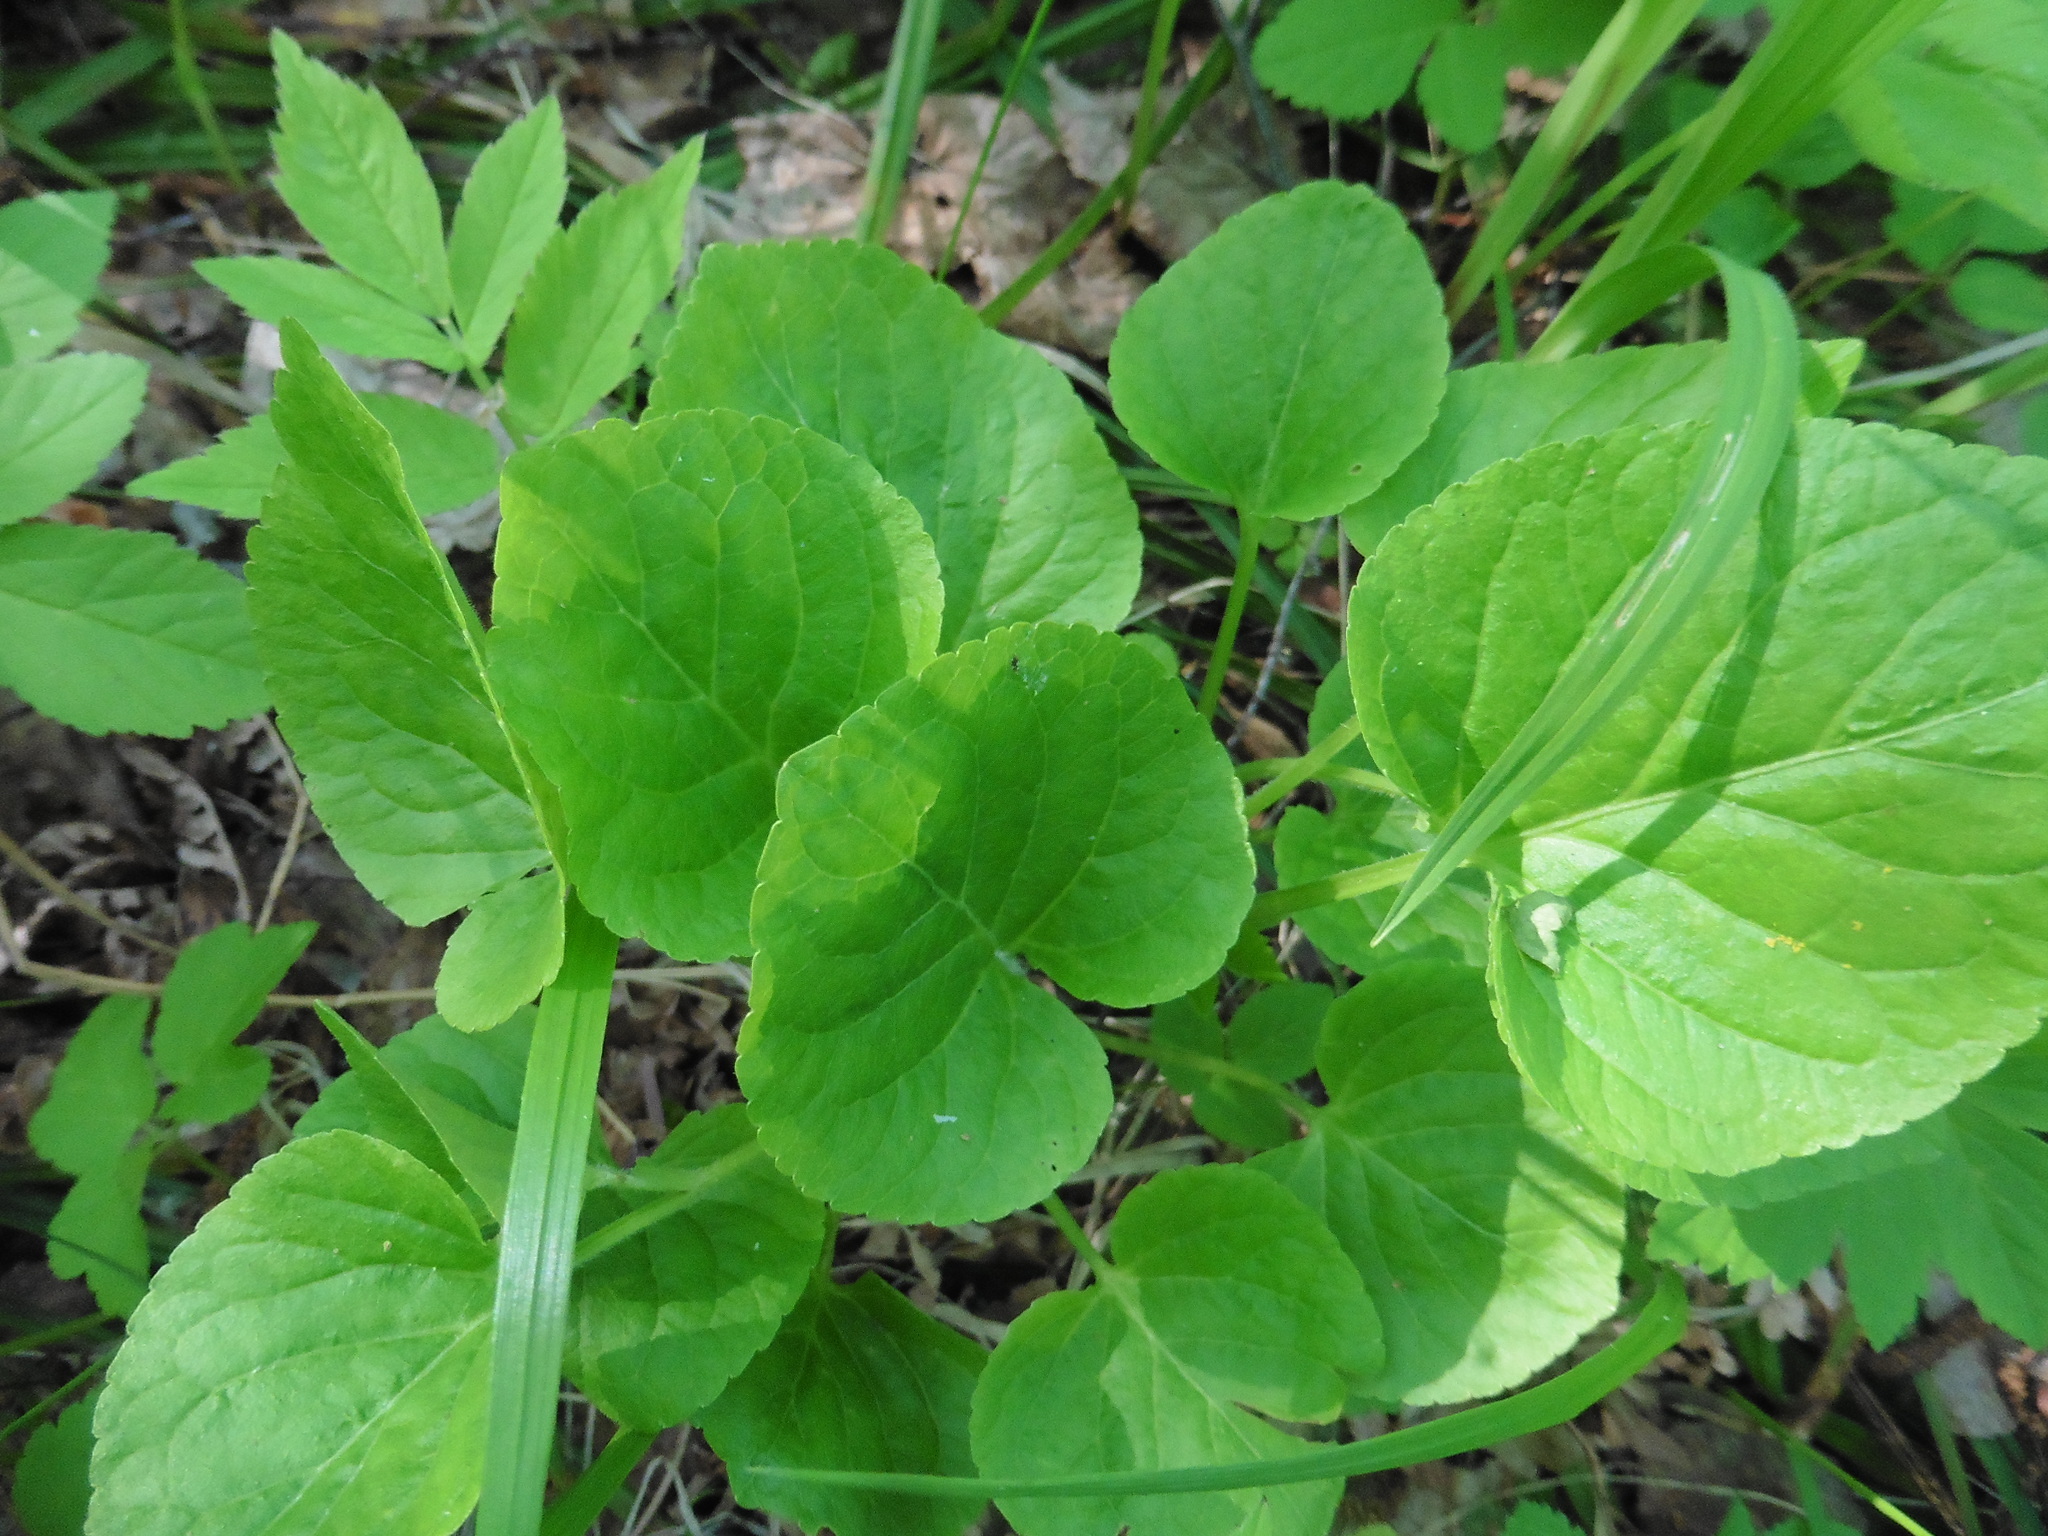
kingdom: Plantae
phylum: Tracheophyta
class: Magnoliopsida
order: Malpighiales
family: Violaceae
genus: Viola
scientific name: Viola mirabilis
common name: Wonder violet
